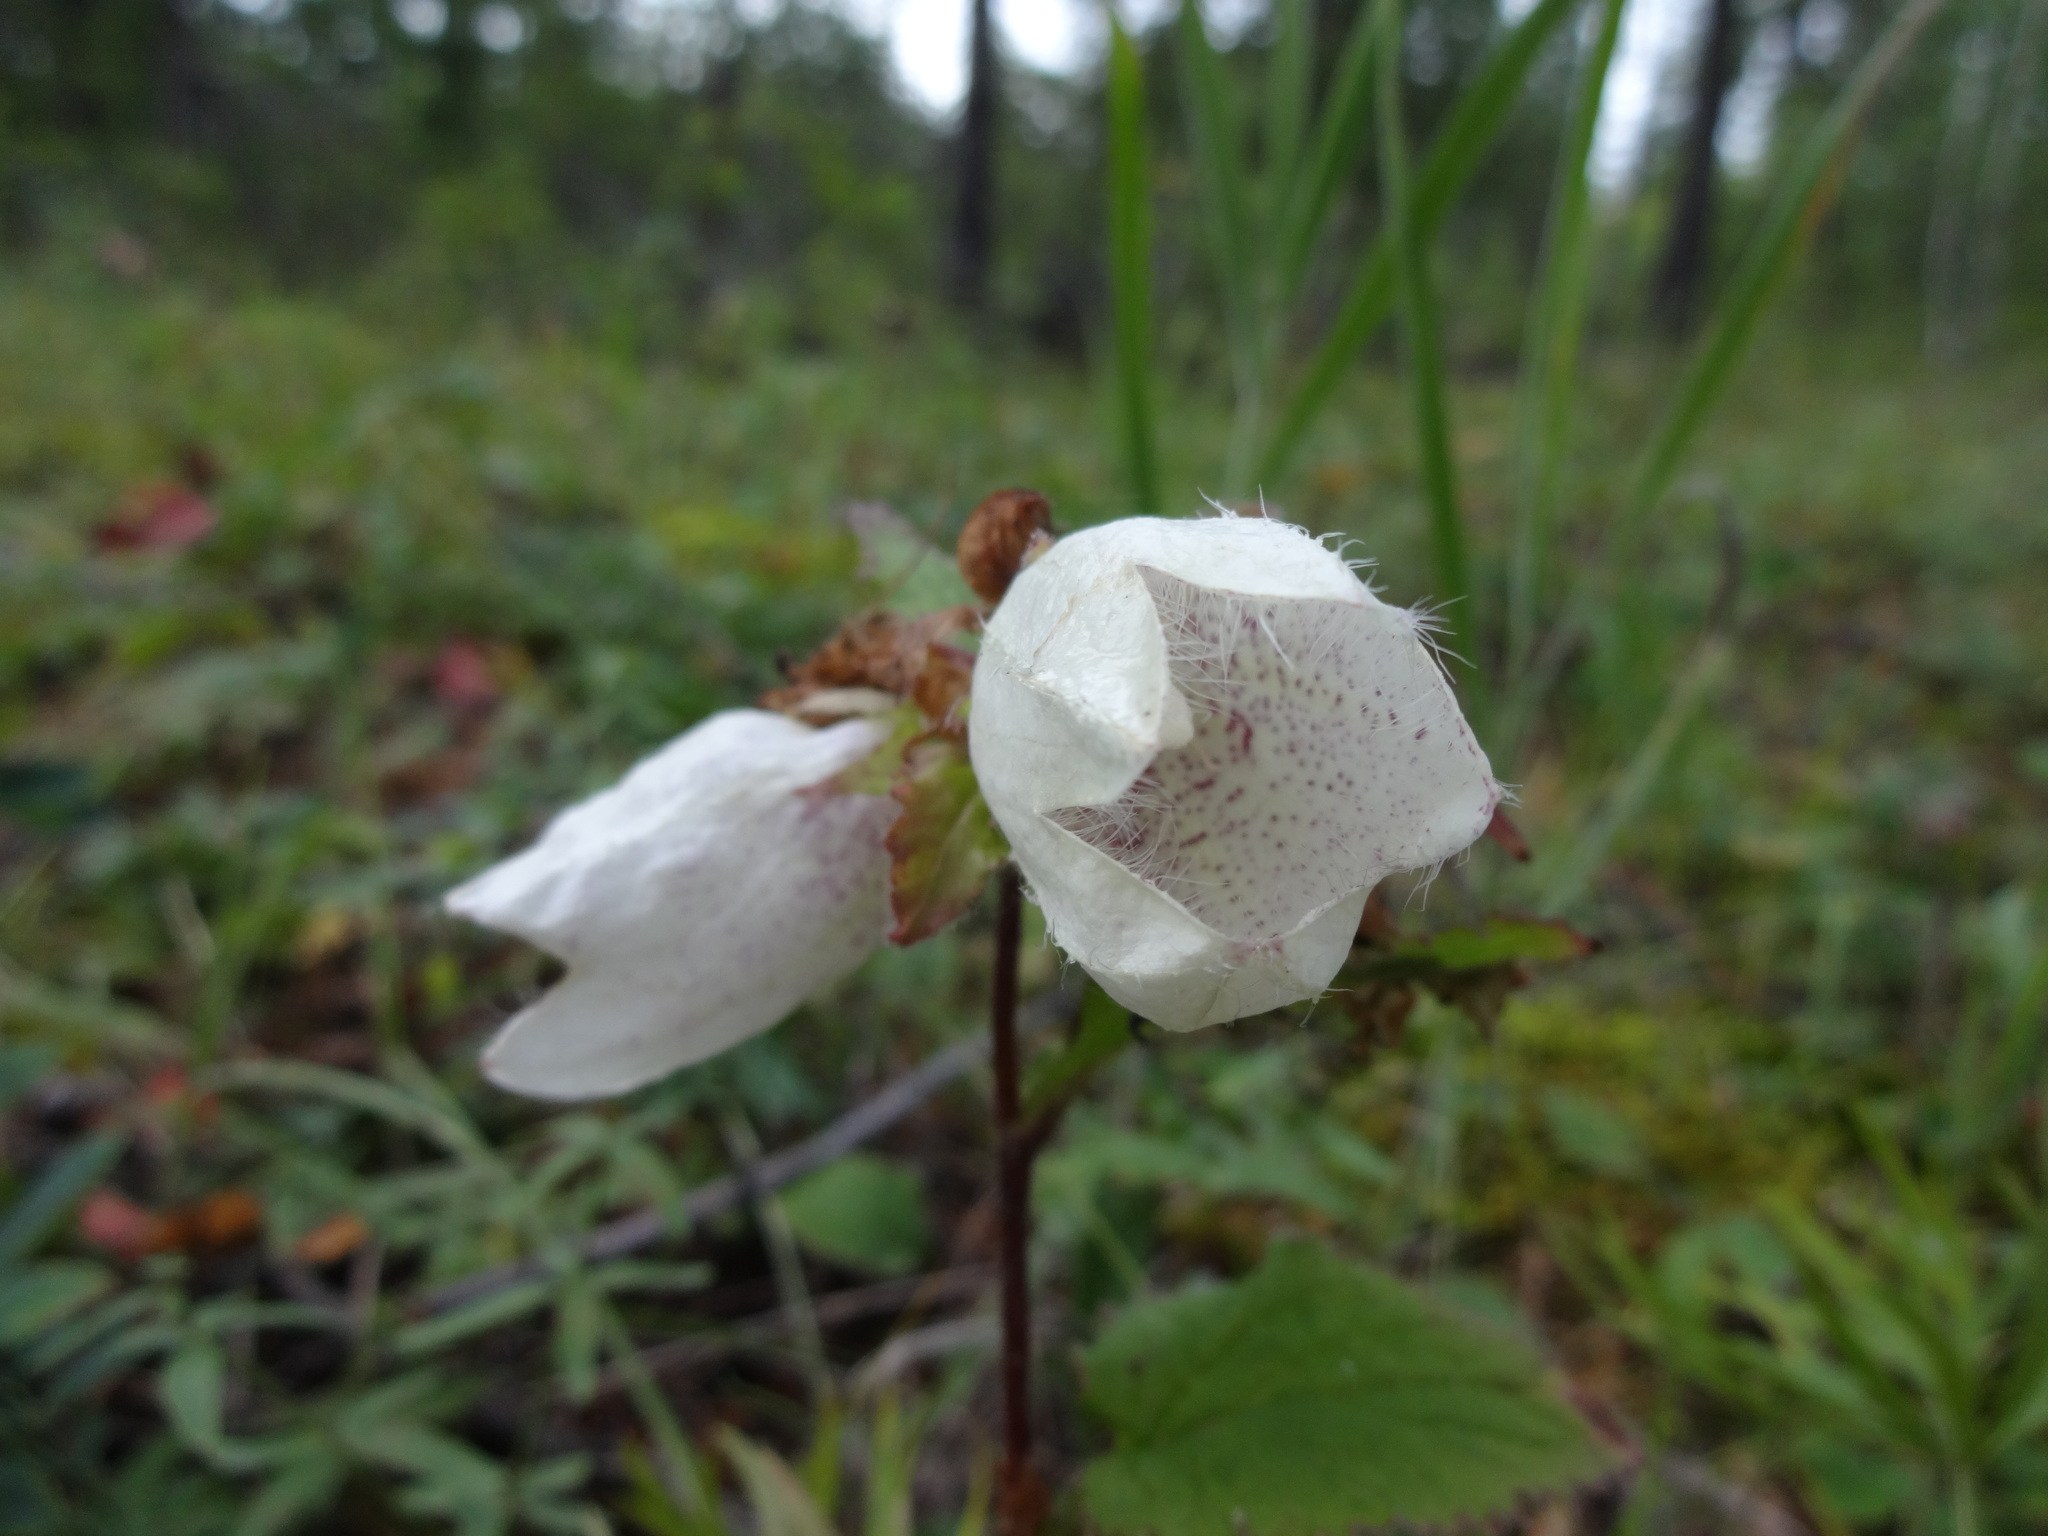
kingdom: Plantae
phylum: Tracheophyta
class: Magnoliopsida
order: Asterales
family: Campanulaceae
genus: Campanula
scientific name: Campanula punctata
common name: Spotted bellflower
